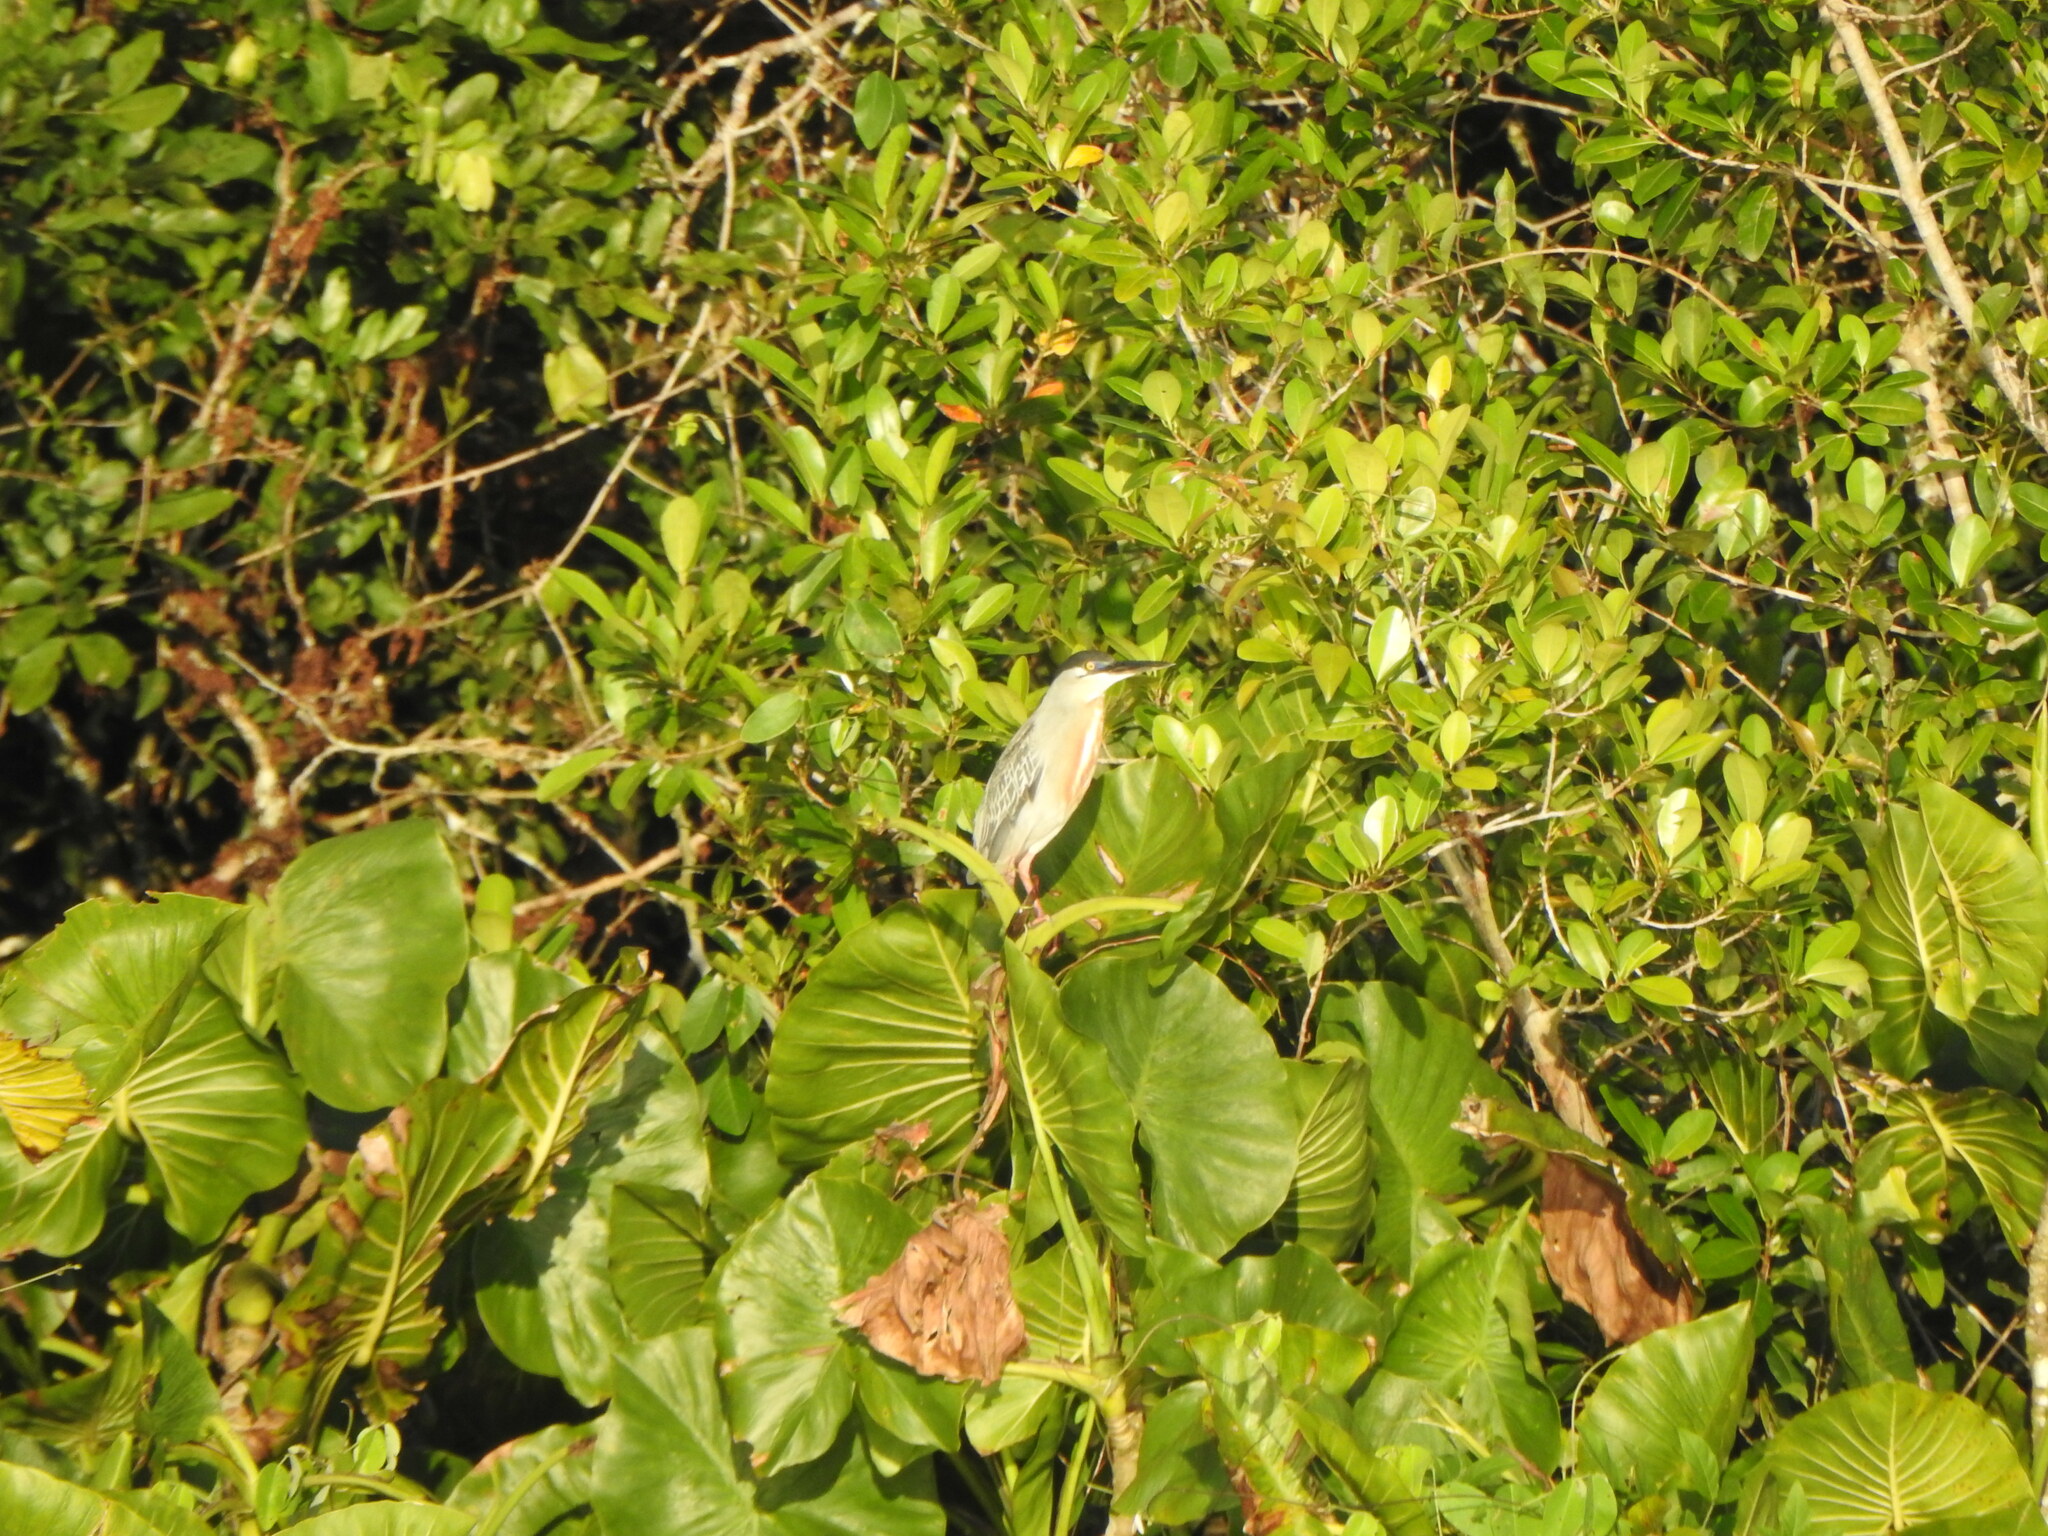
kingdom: Animalia
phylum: Chordata
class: Aves
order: Pelecaniformes
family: Ardeidae
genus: Butorides
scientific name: Butorides striata
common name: Striated heron
